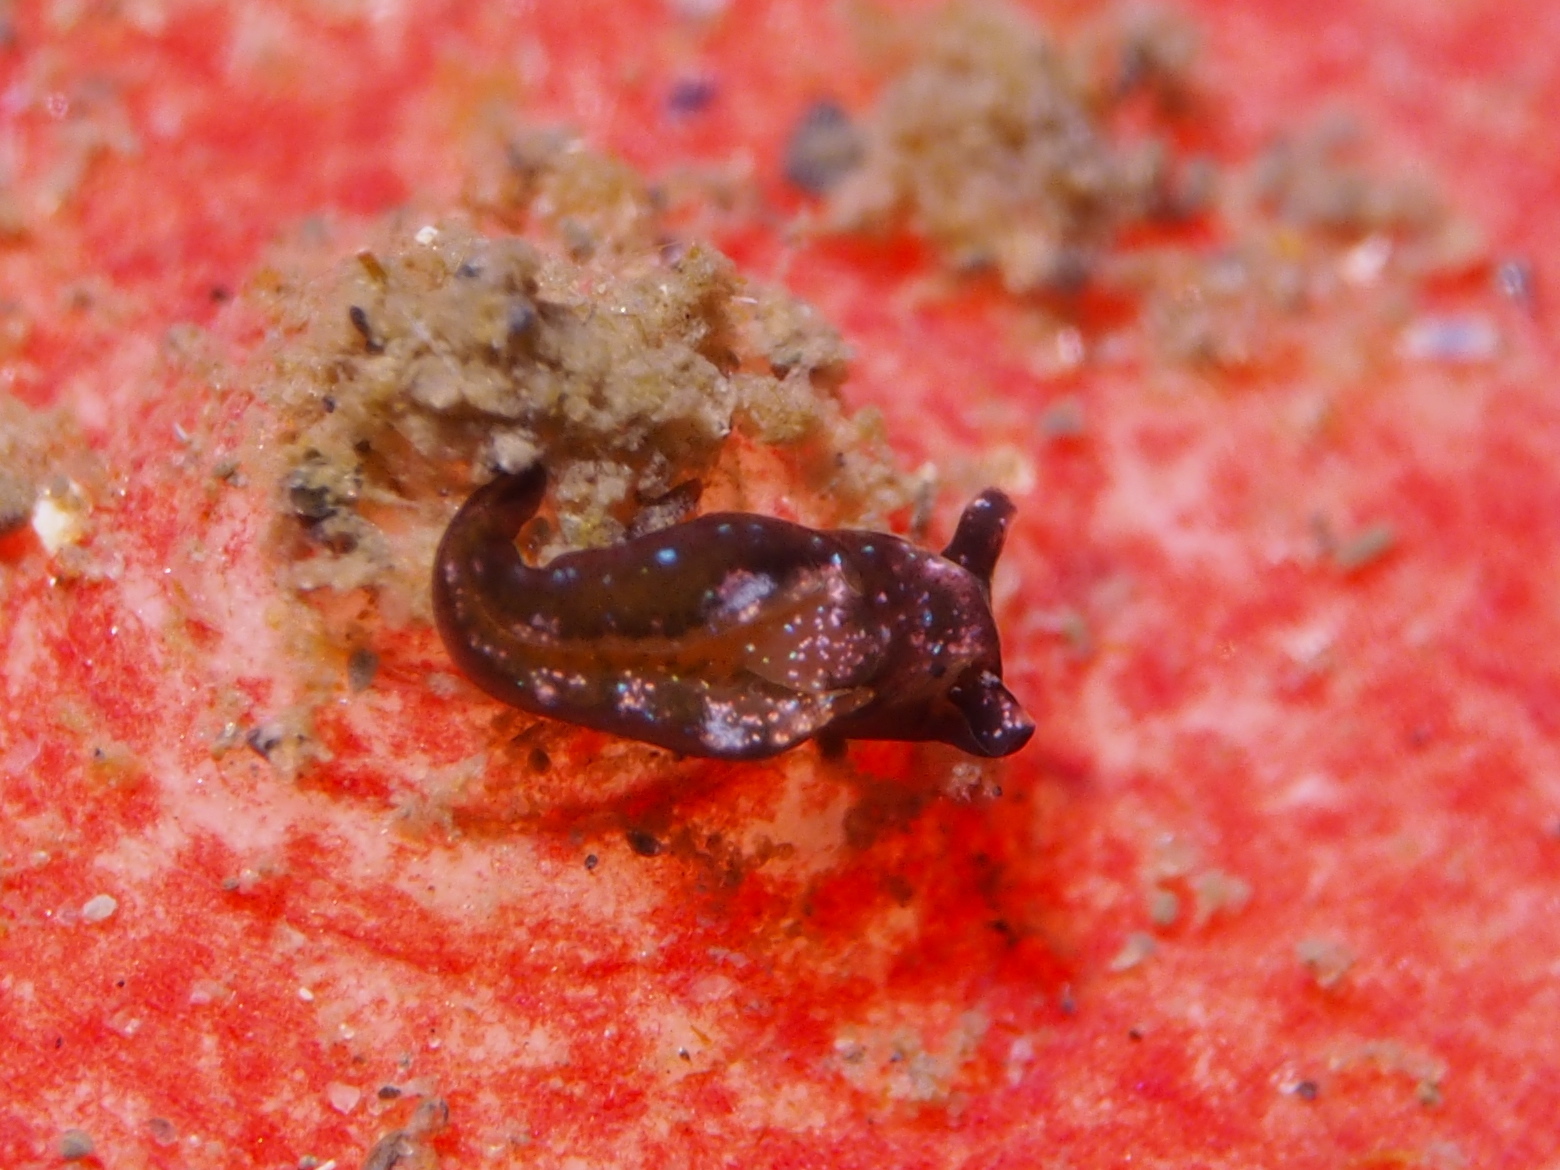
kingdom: Animalia
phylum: Mollusca
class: Gastropoda
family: Plakobranchidae
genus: Elysia
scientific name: Elysia viridis
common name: Green elysia
